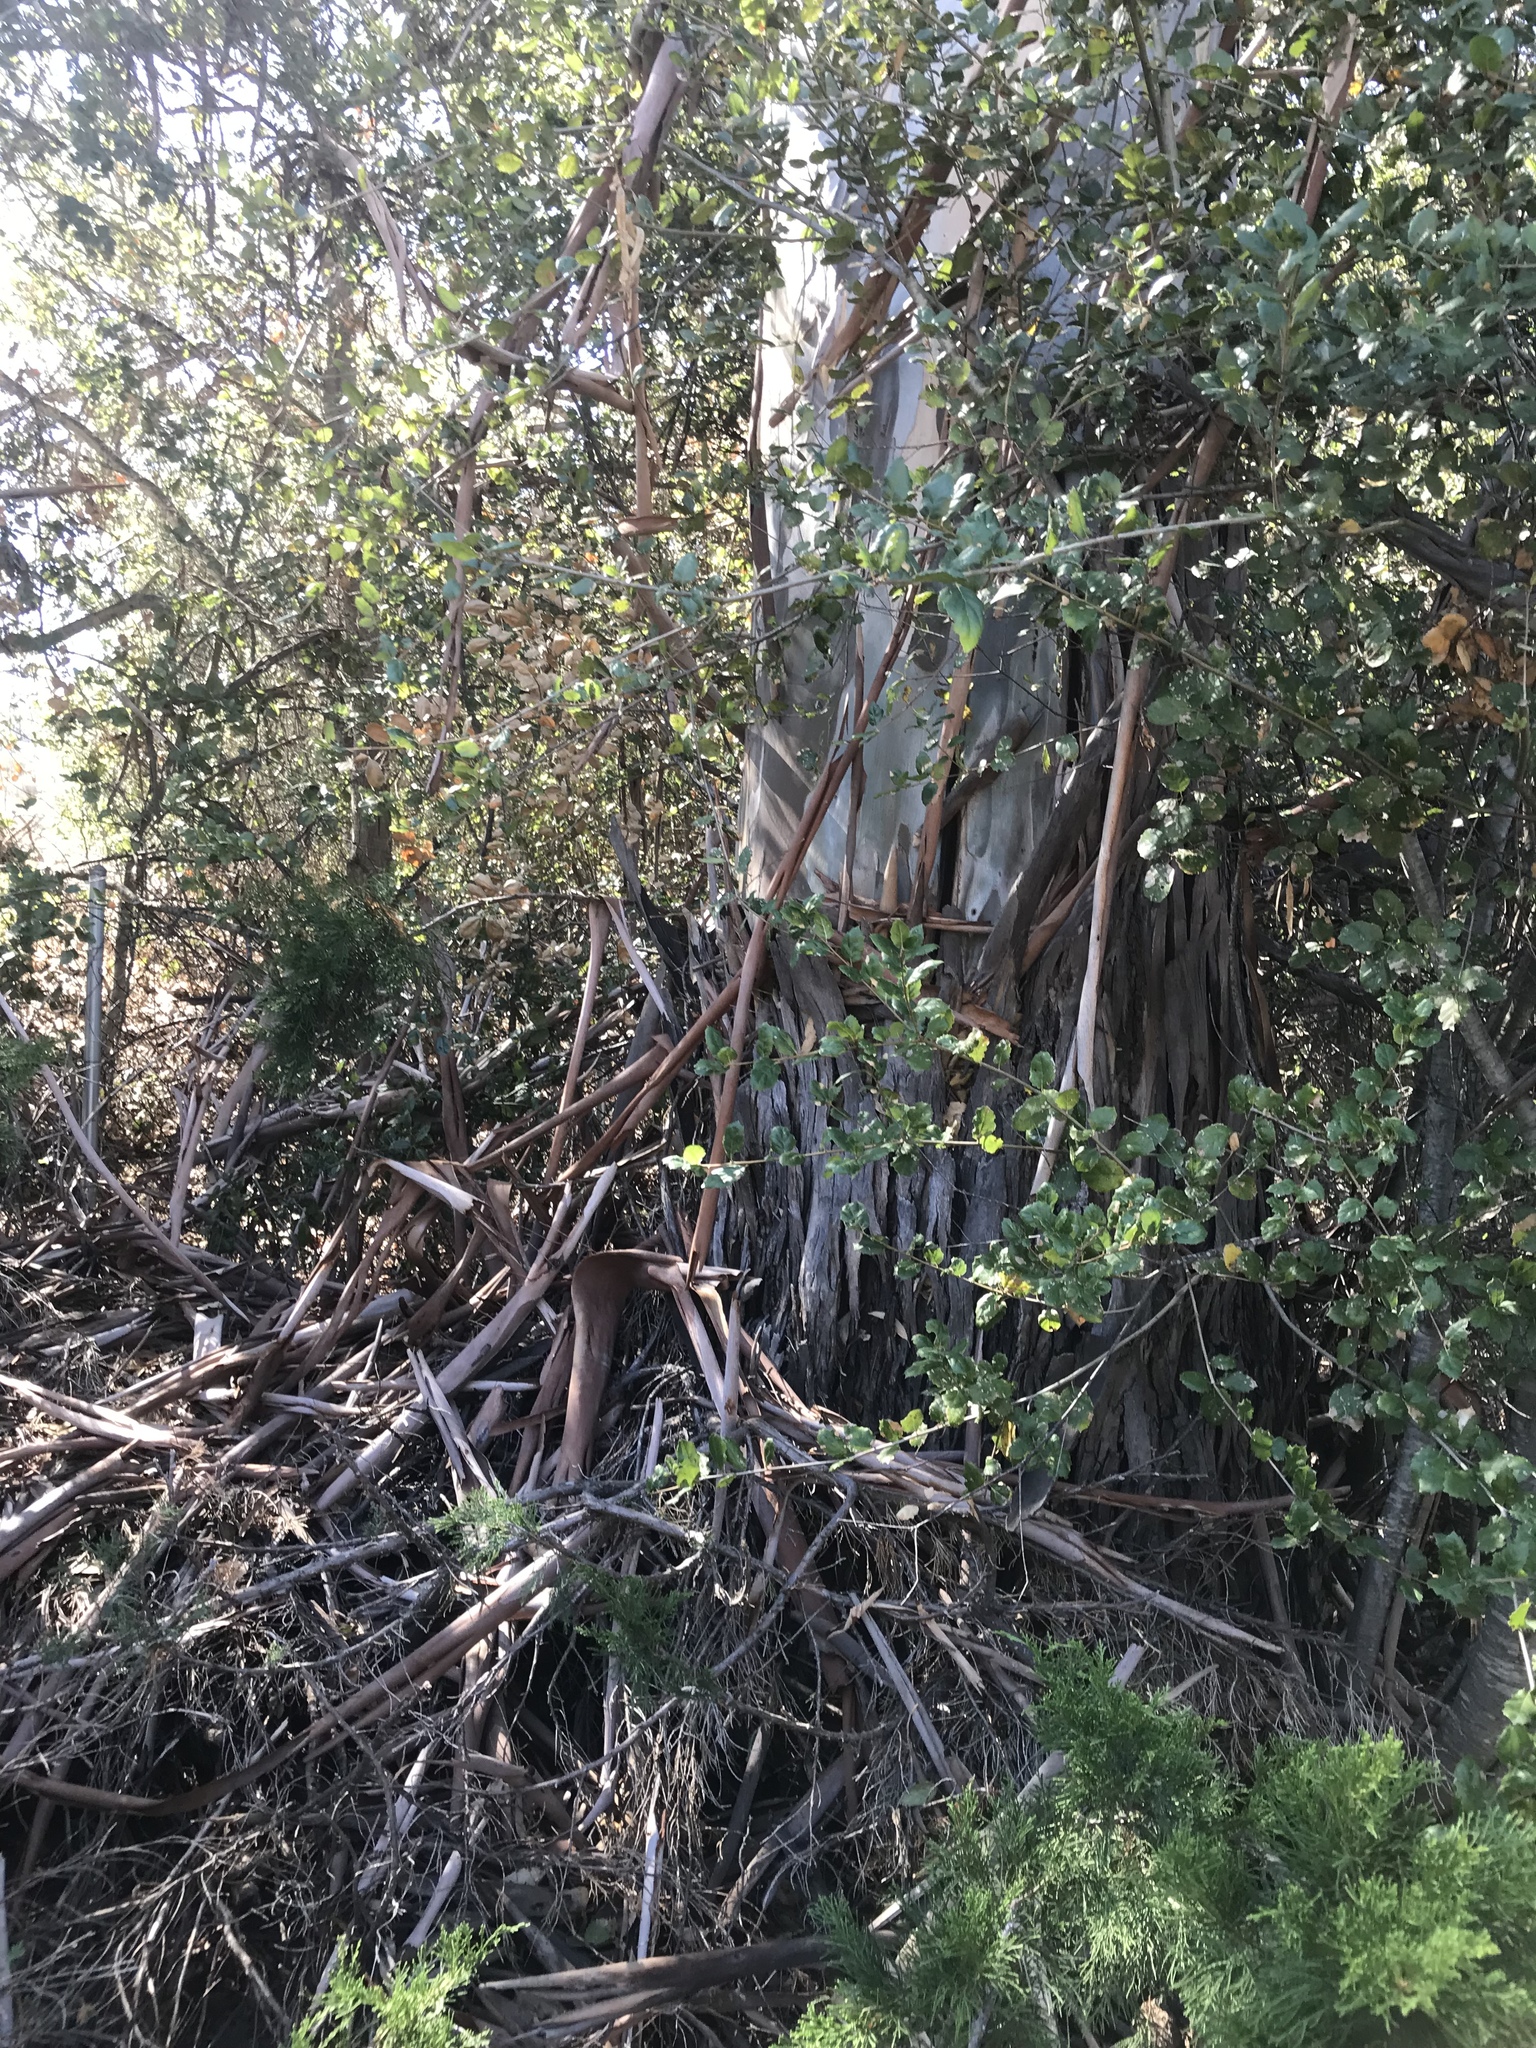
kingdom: Plantae
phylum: Tracheophyta
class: Magnoliopsida
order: Myrtales
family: Myrtaceae
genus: Eucalyptus
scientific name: Eucalyptus camaldulensis
